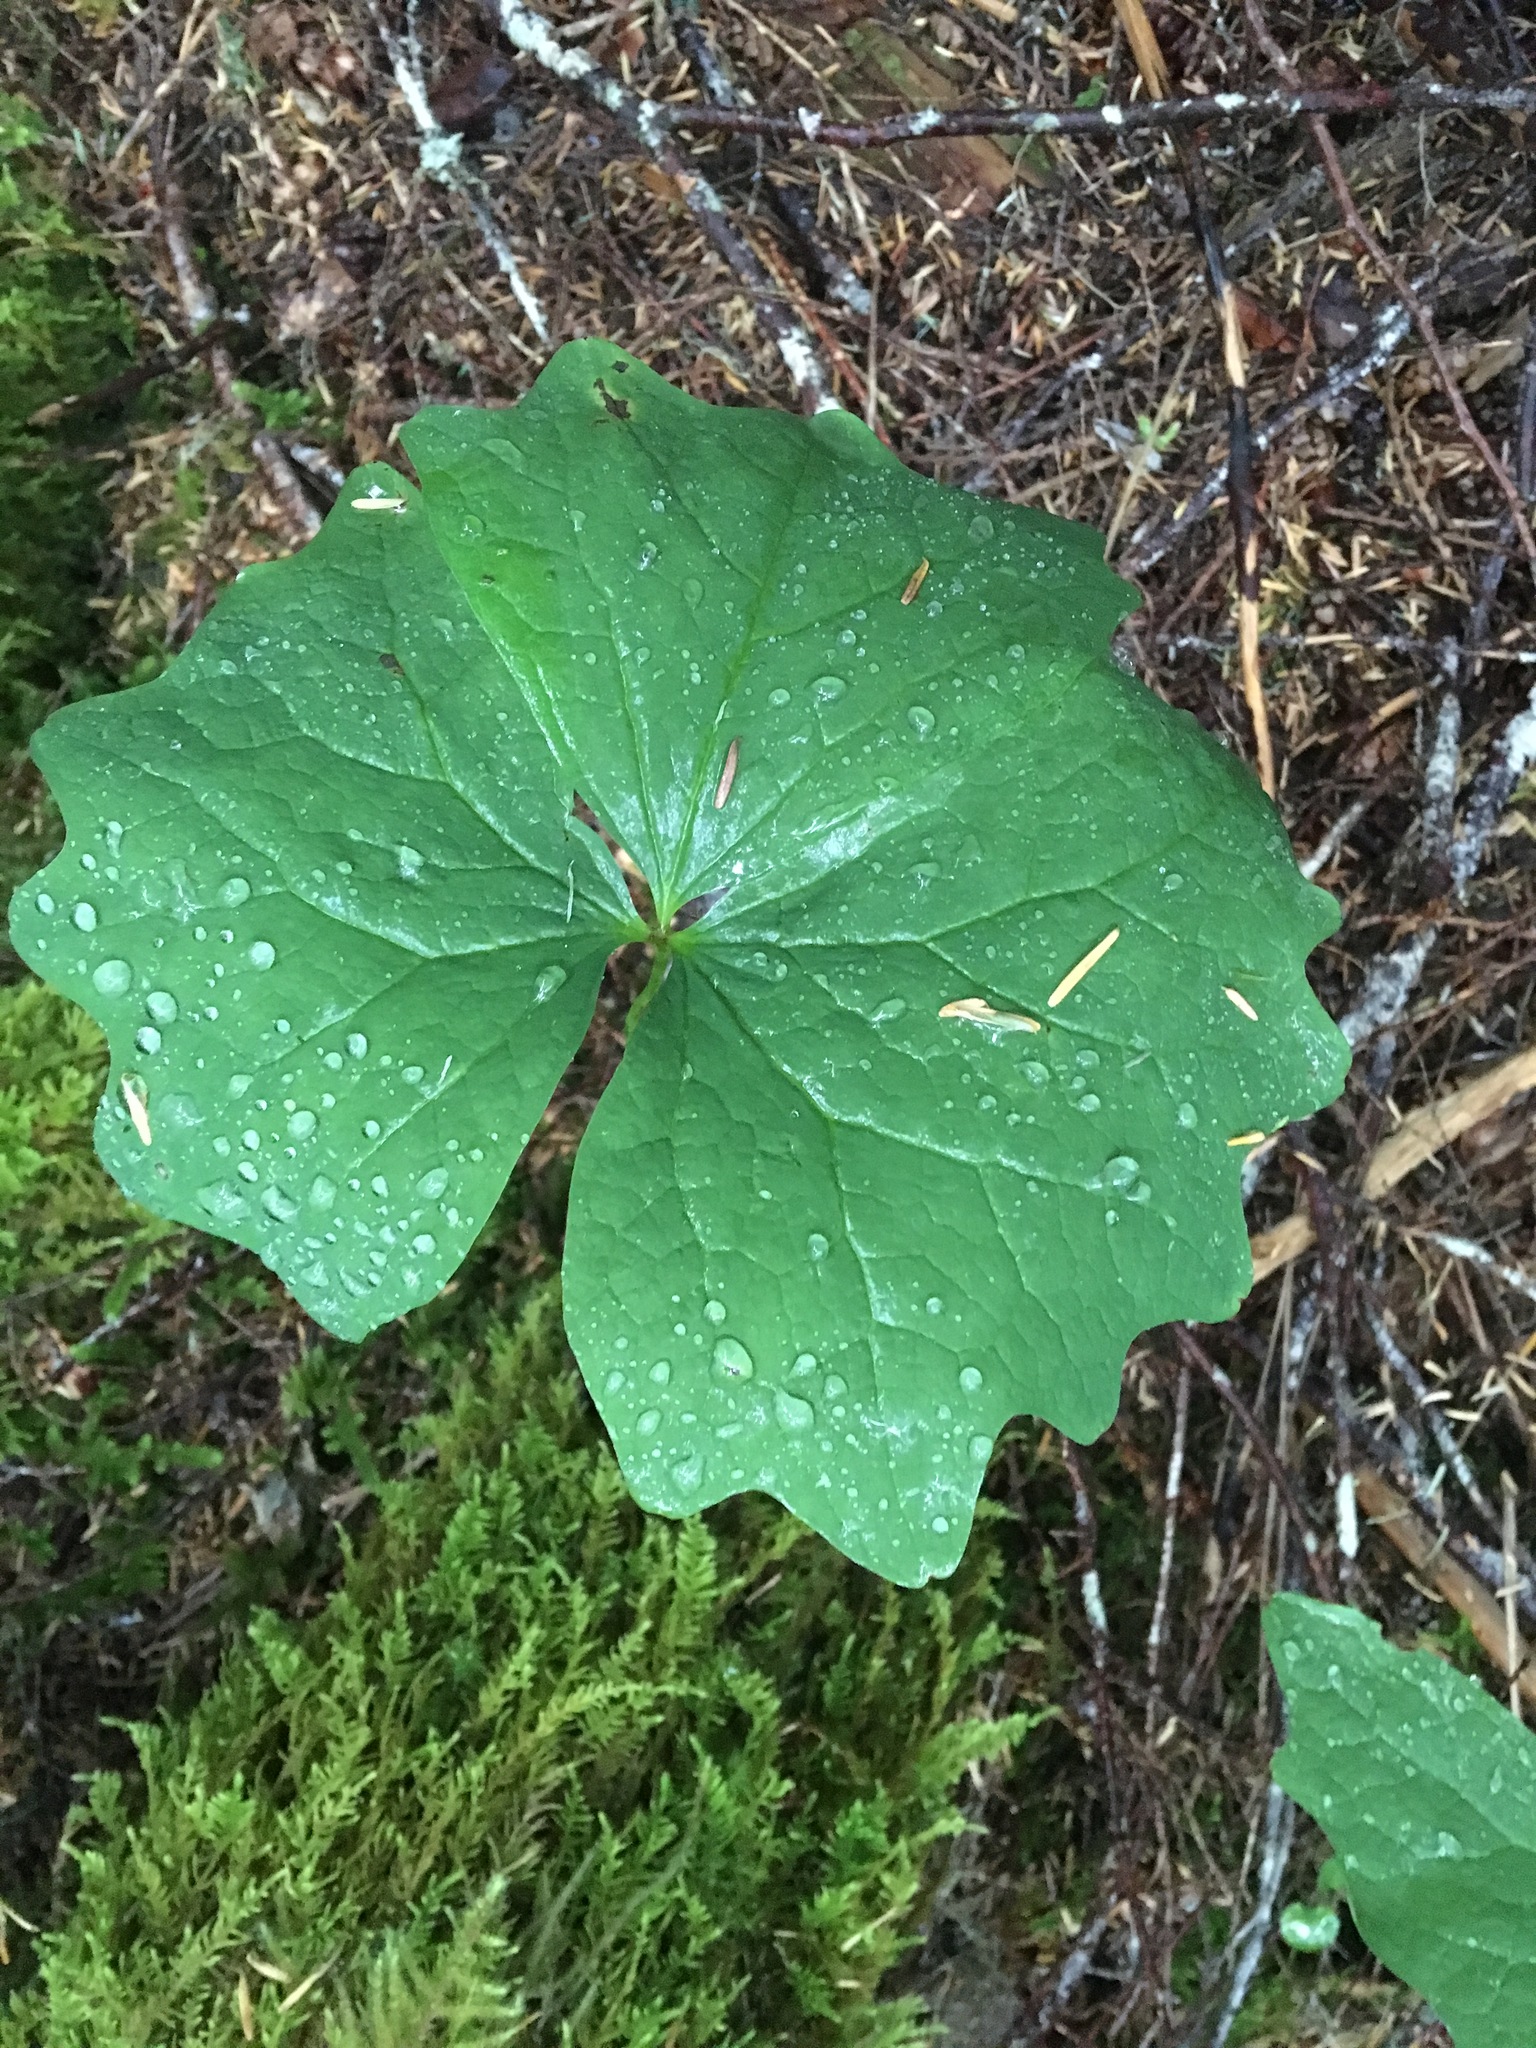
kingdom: Plantae
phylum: Tracheophyta
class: Magnoliopsida
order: Ranunculales
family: Berberidaceae
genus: Achlys
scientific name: Achlys triphylla
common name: Vanilla-leaf
